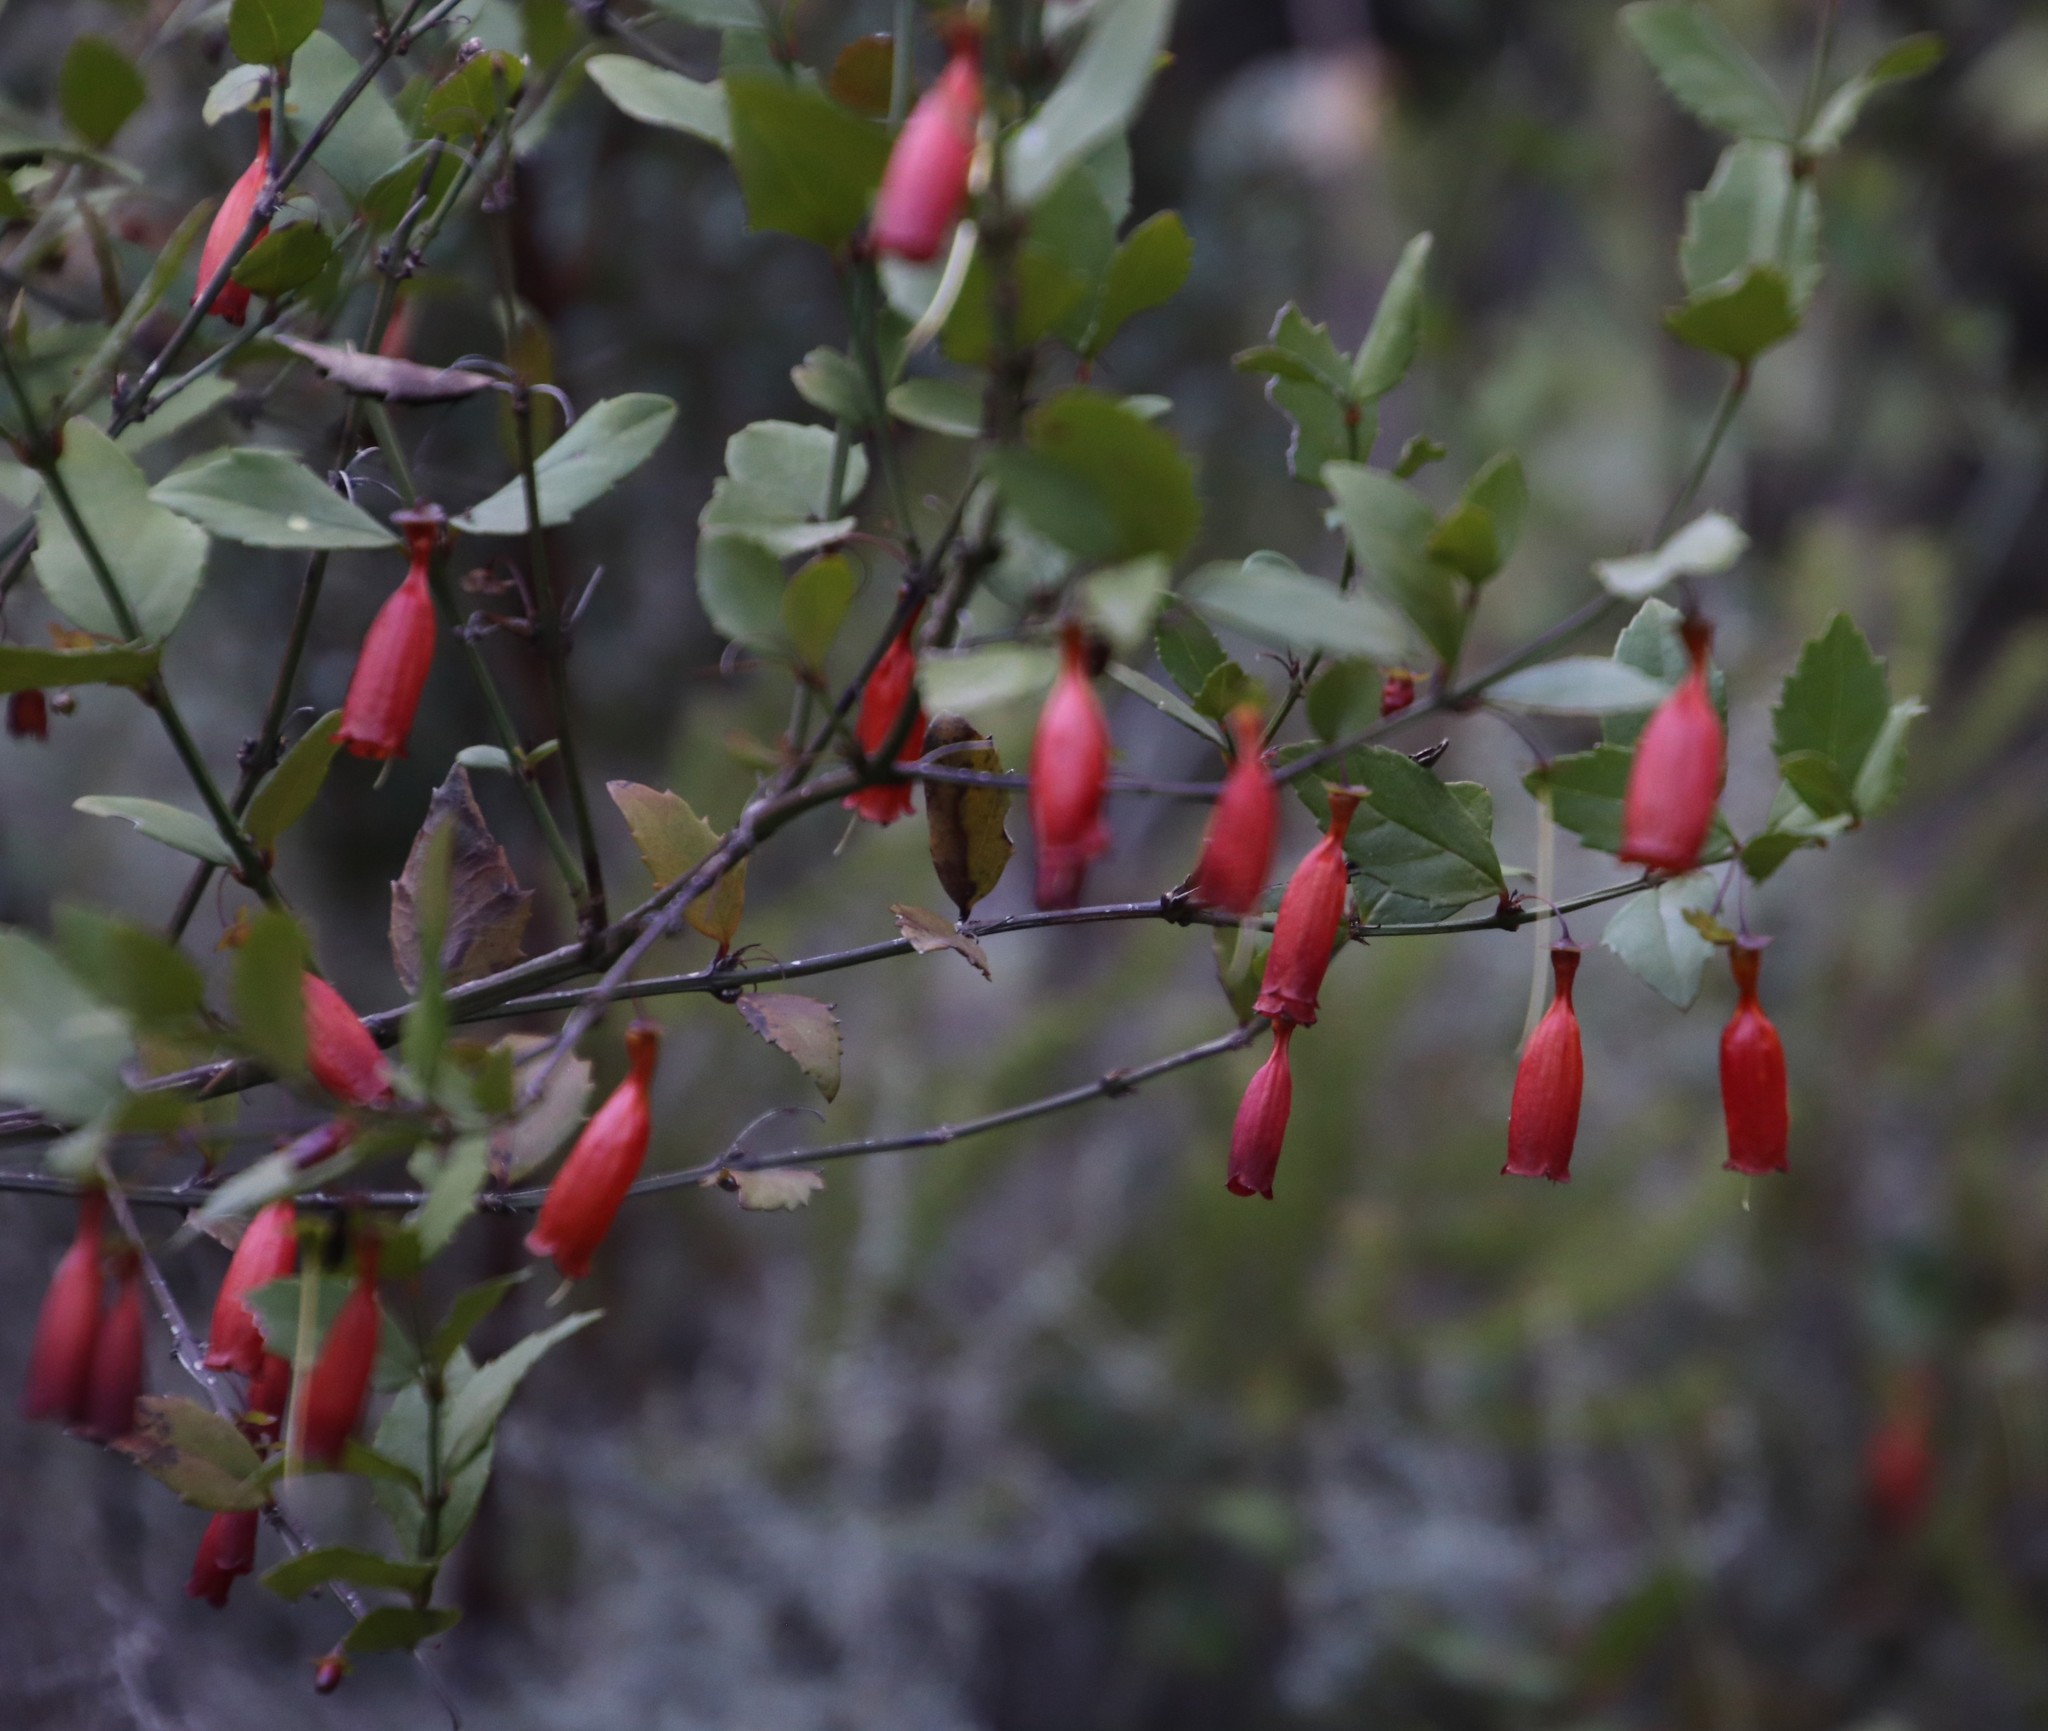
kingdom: Plantae
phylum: Tracheophyta
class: Magnoliopsida
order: Lamiales
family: Stilbaceae
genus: Halleria
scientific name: Halleria elliptica
